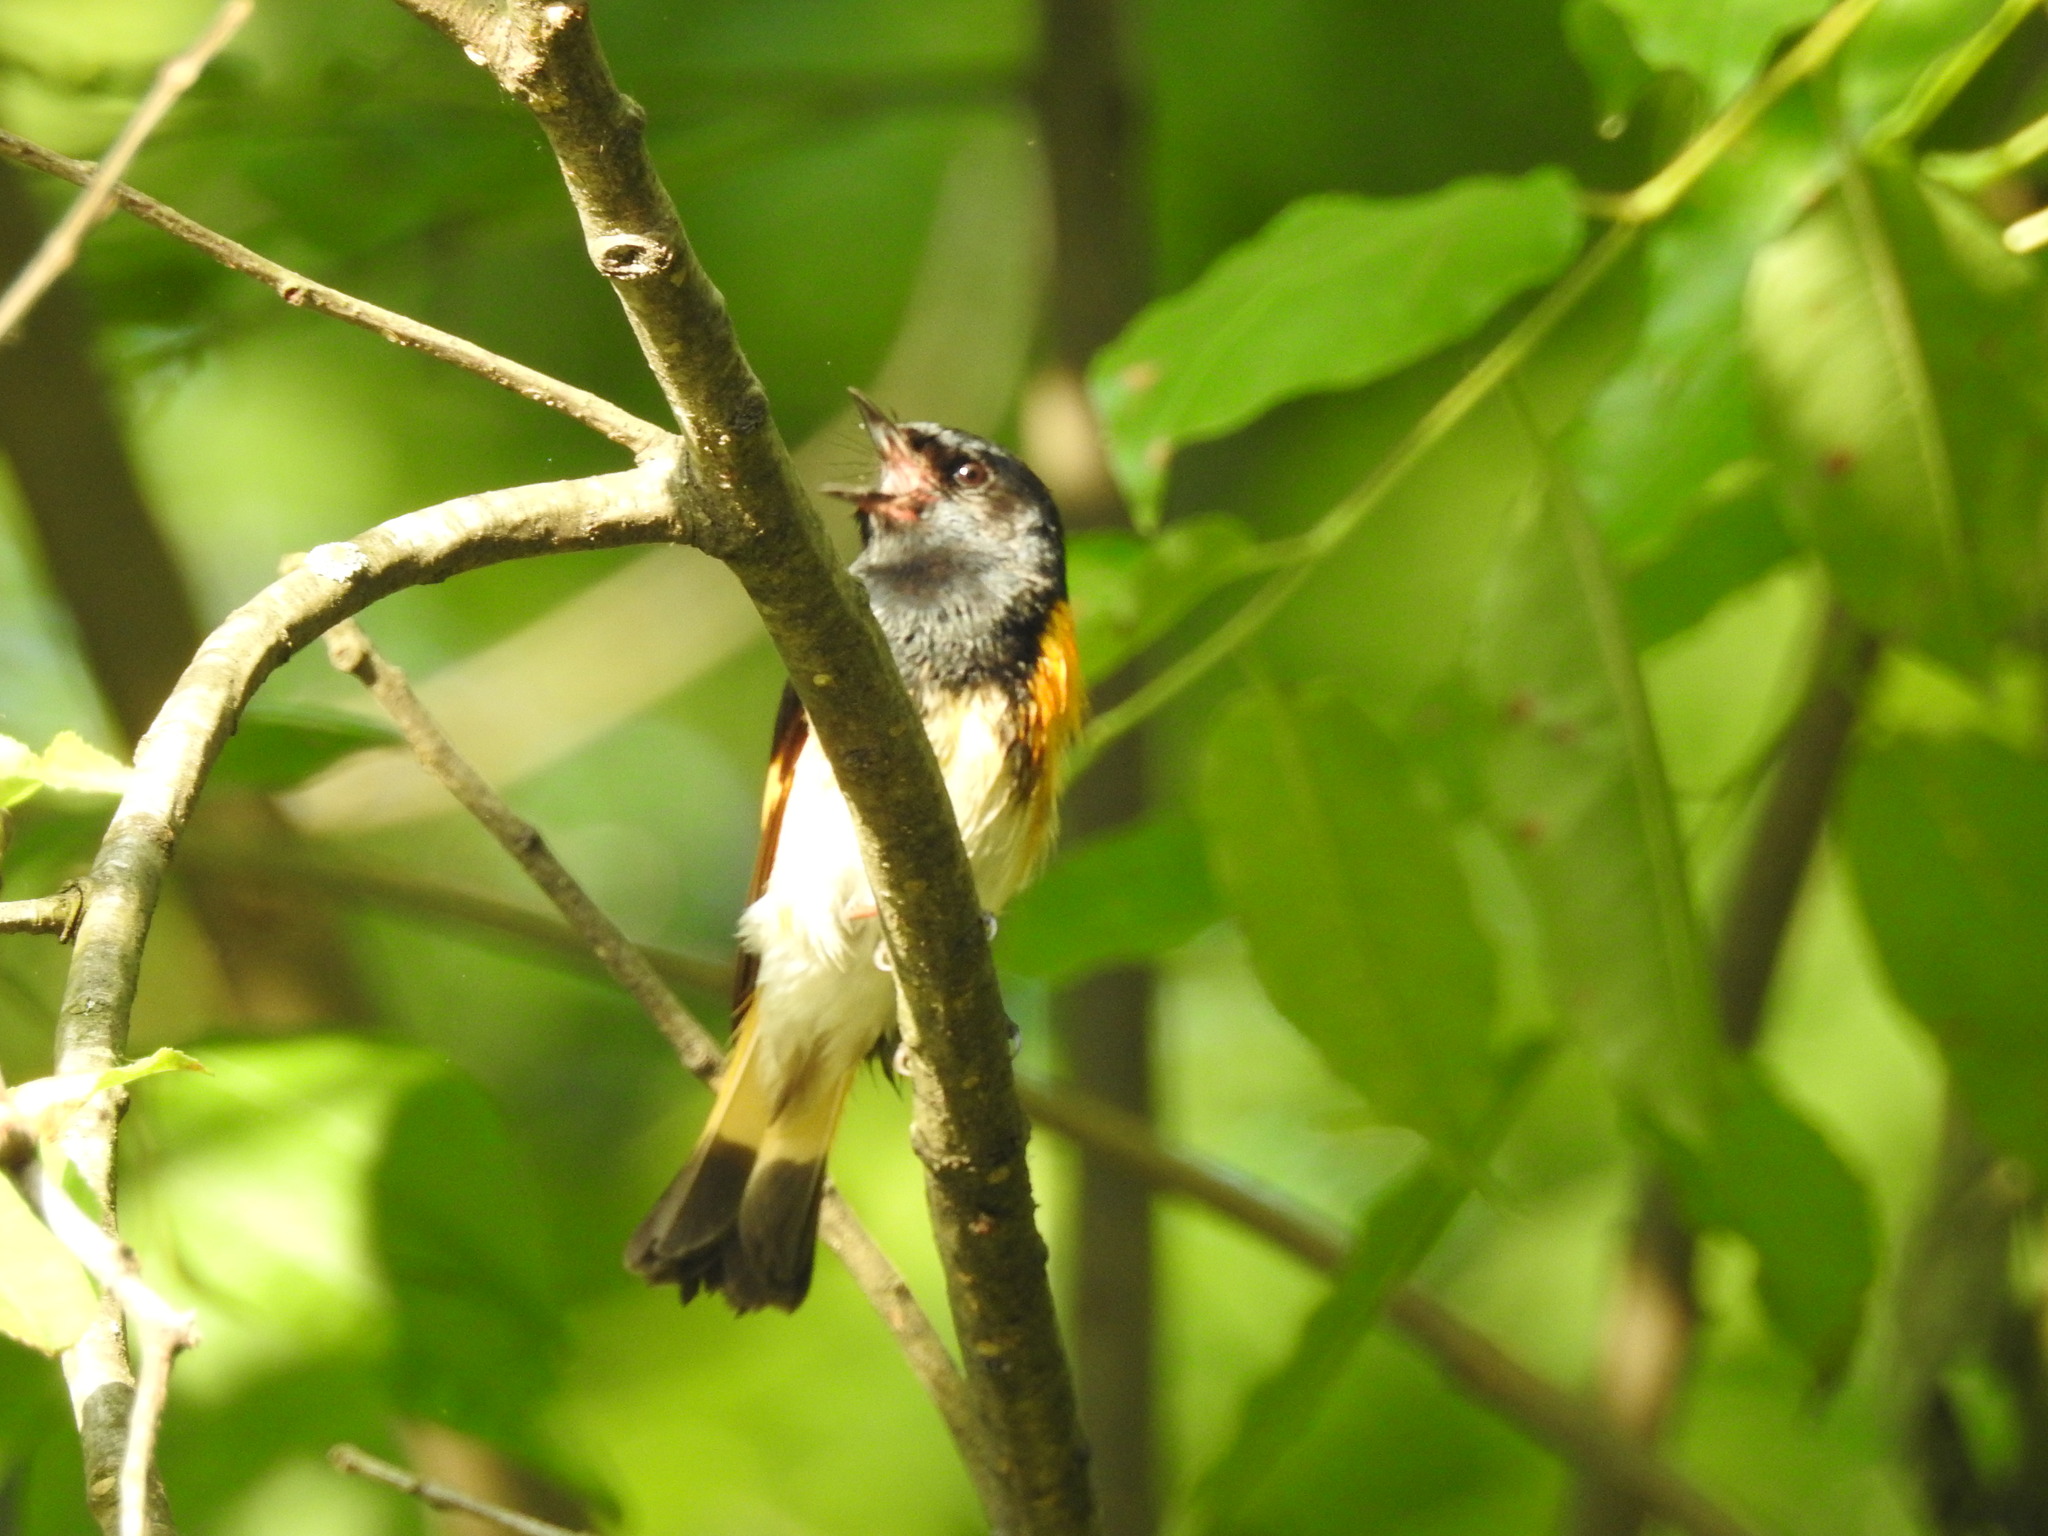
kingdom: Animalia
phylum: Chordata
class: Aves
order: Passeriformes
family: Parulidae
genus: Setophaga
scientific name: Setophaga ruticilla
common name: American redstart
